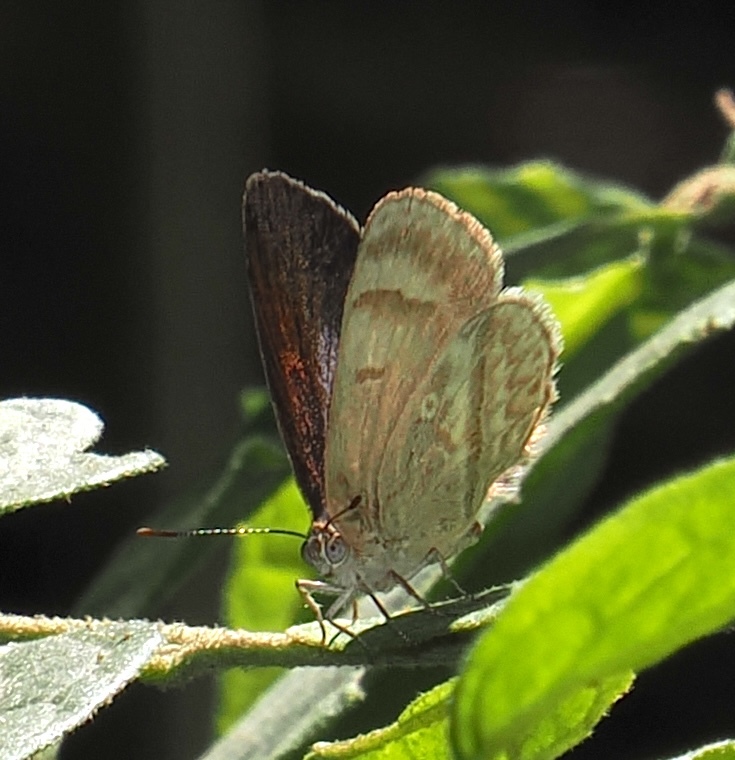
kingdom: Animalia
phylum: Arthropoda
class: Insecta
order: Lepidoptera
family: Lycaenidae
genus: Arawacus
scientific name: Arawacus
